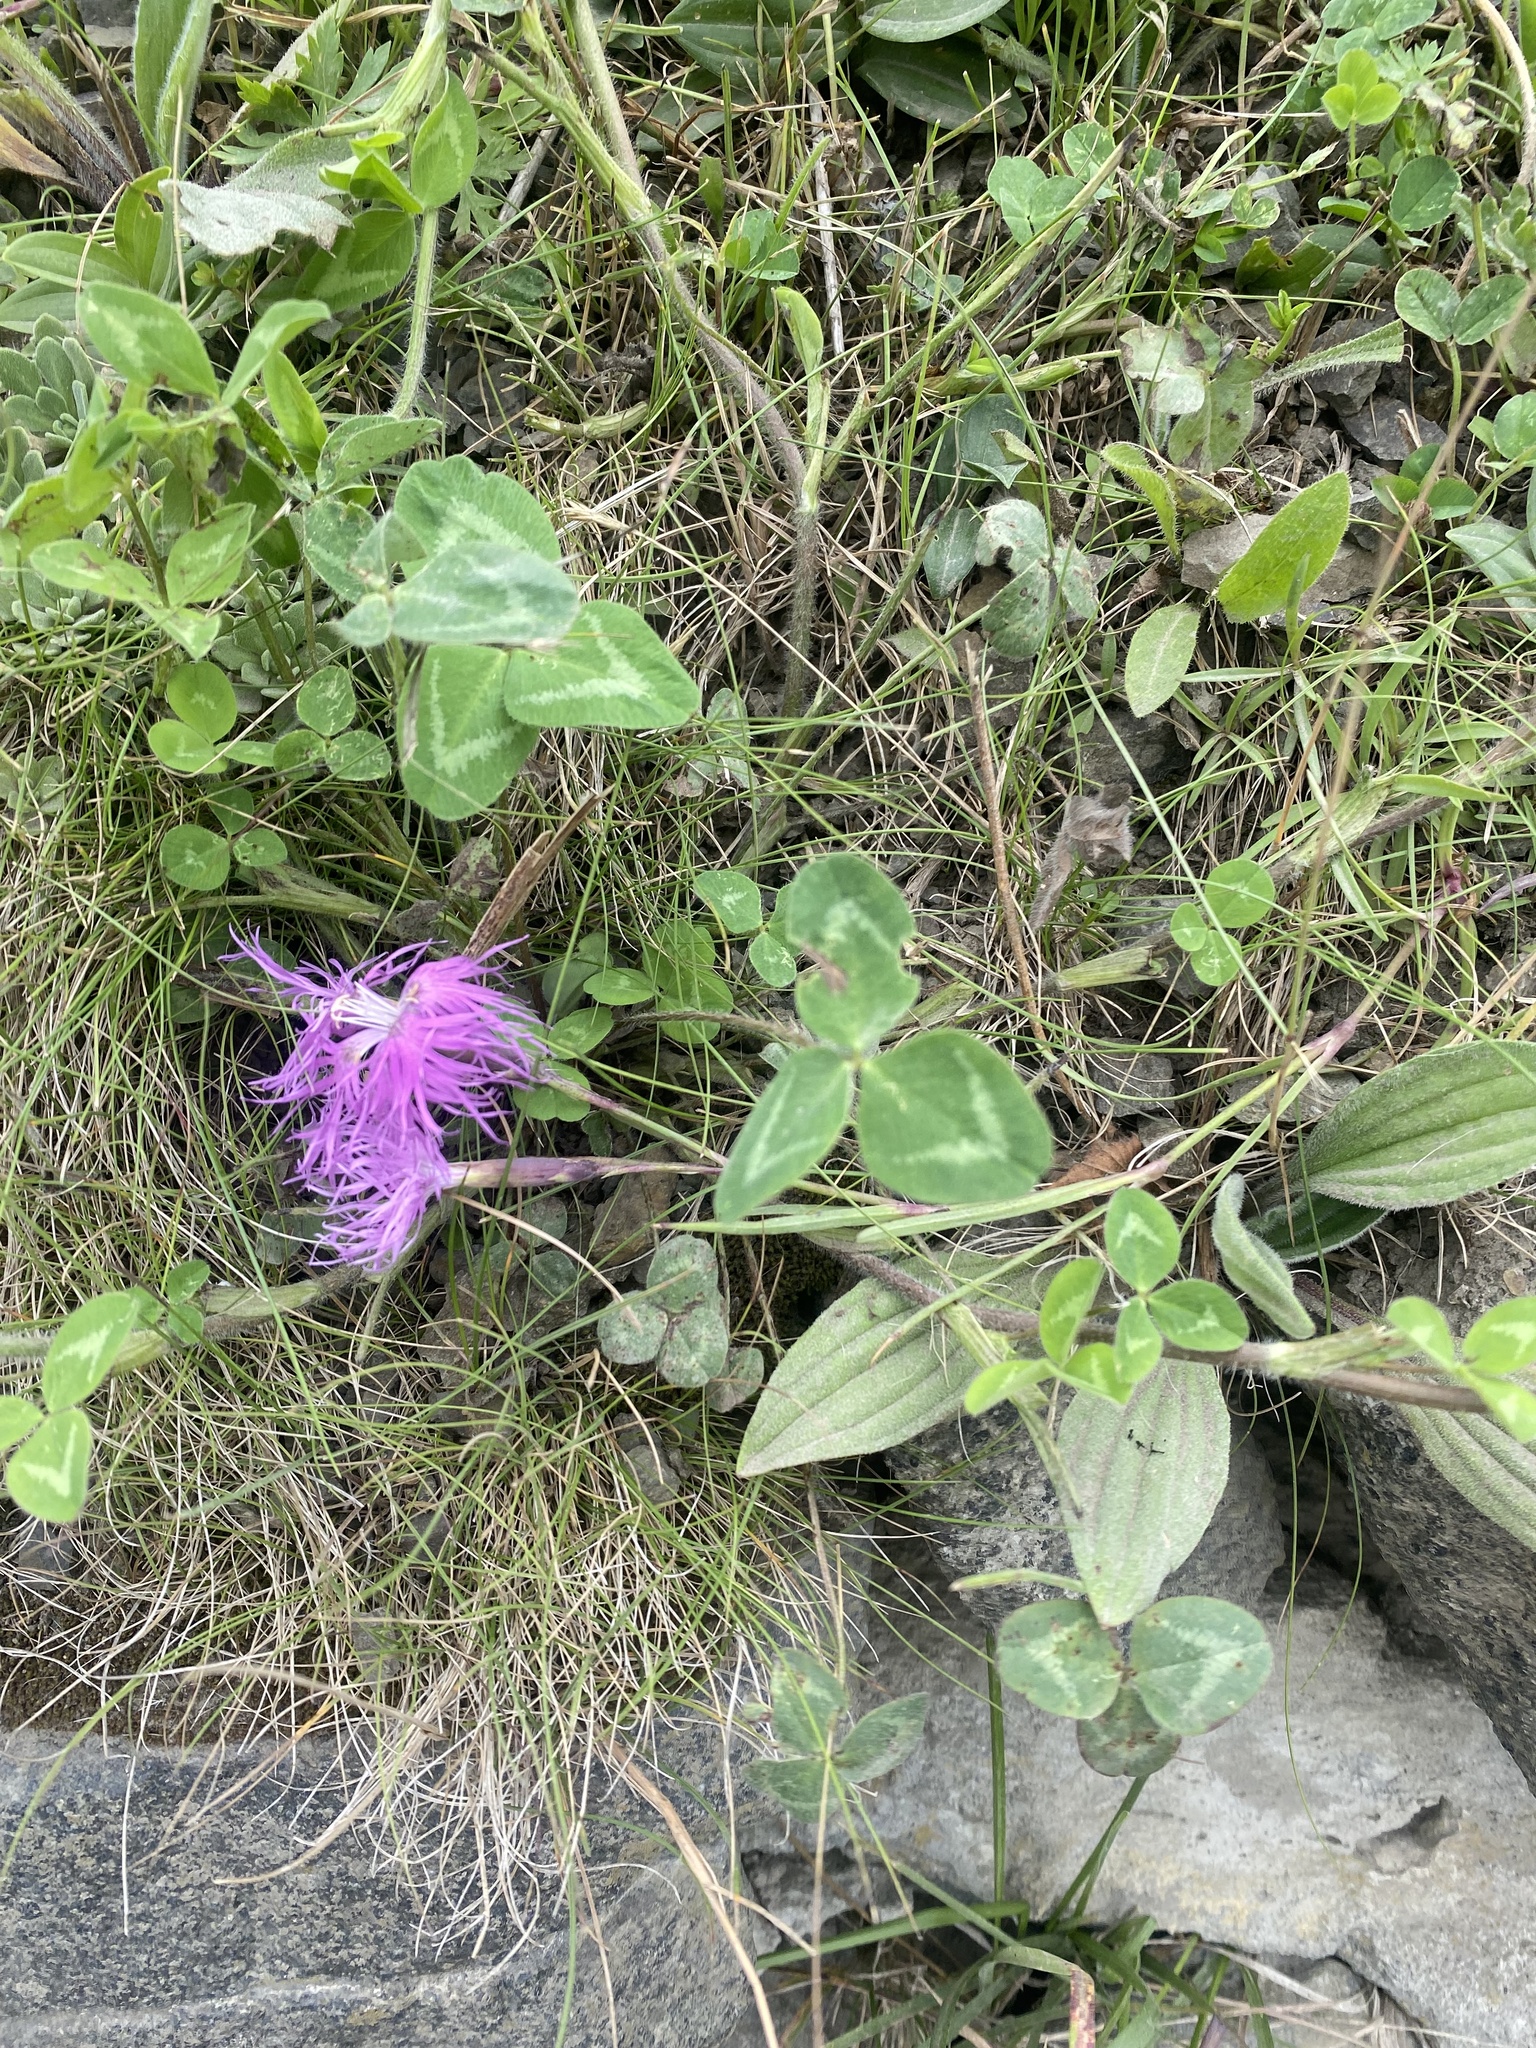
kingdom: Plantae
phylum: Tracheophyta
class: Magnoliopsida
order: Caryophyllales
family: Caryophyllaceae
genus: Dianthus
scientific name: Dianthus superbus
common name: Fringed pink
